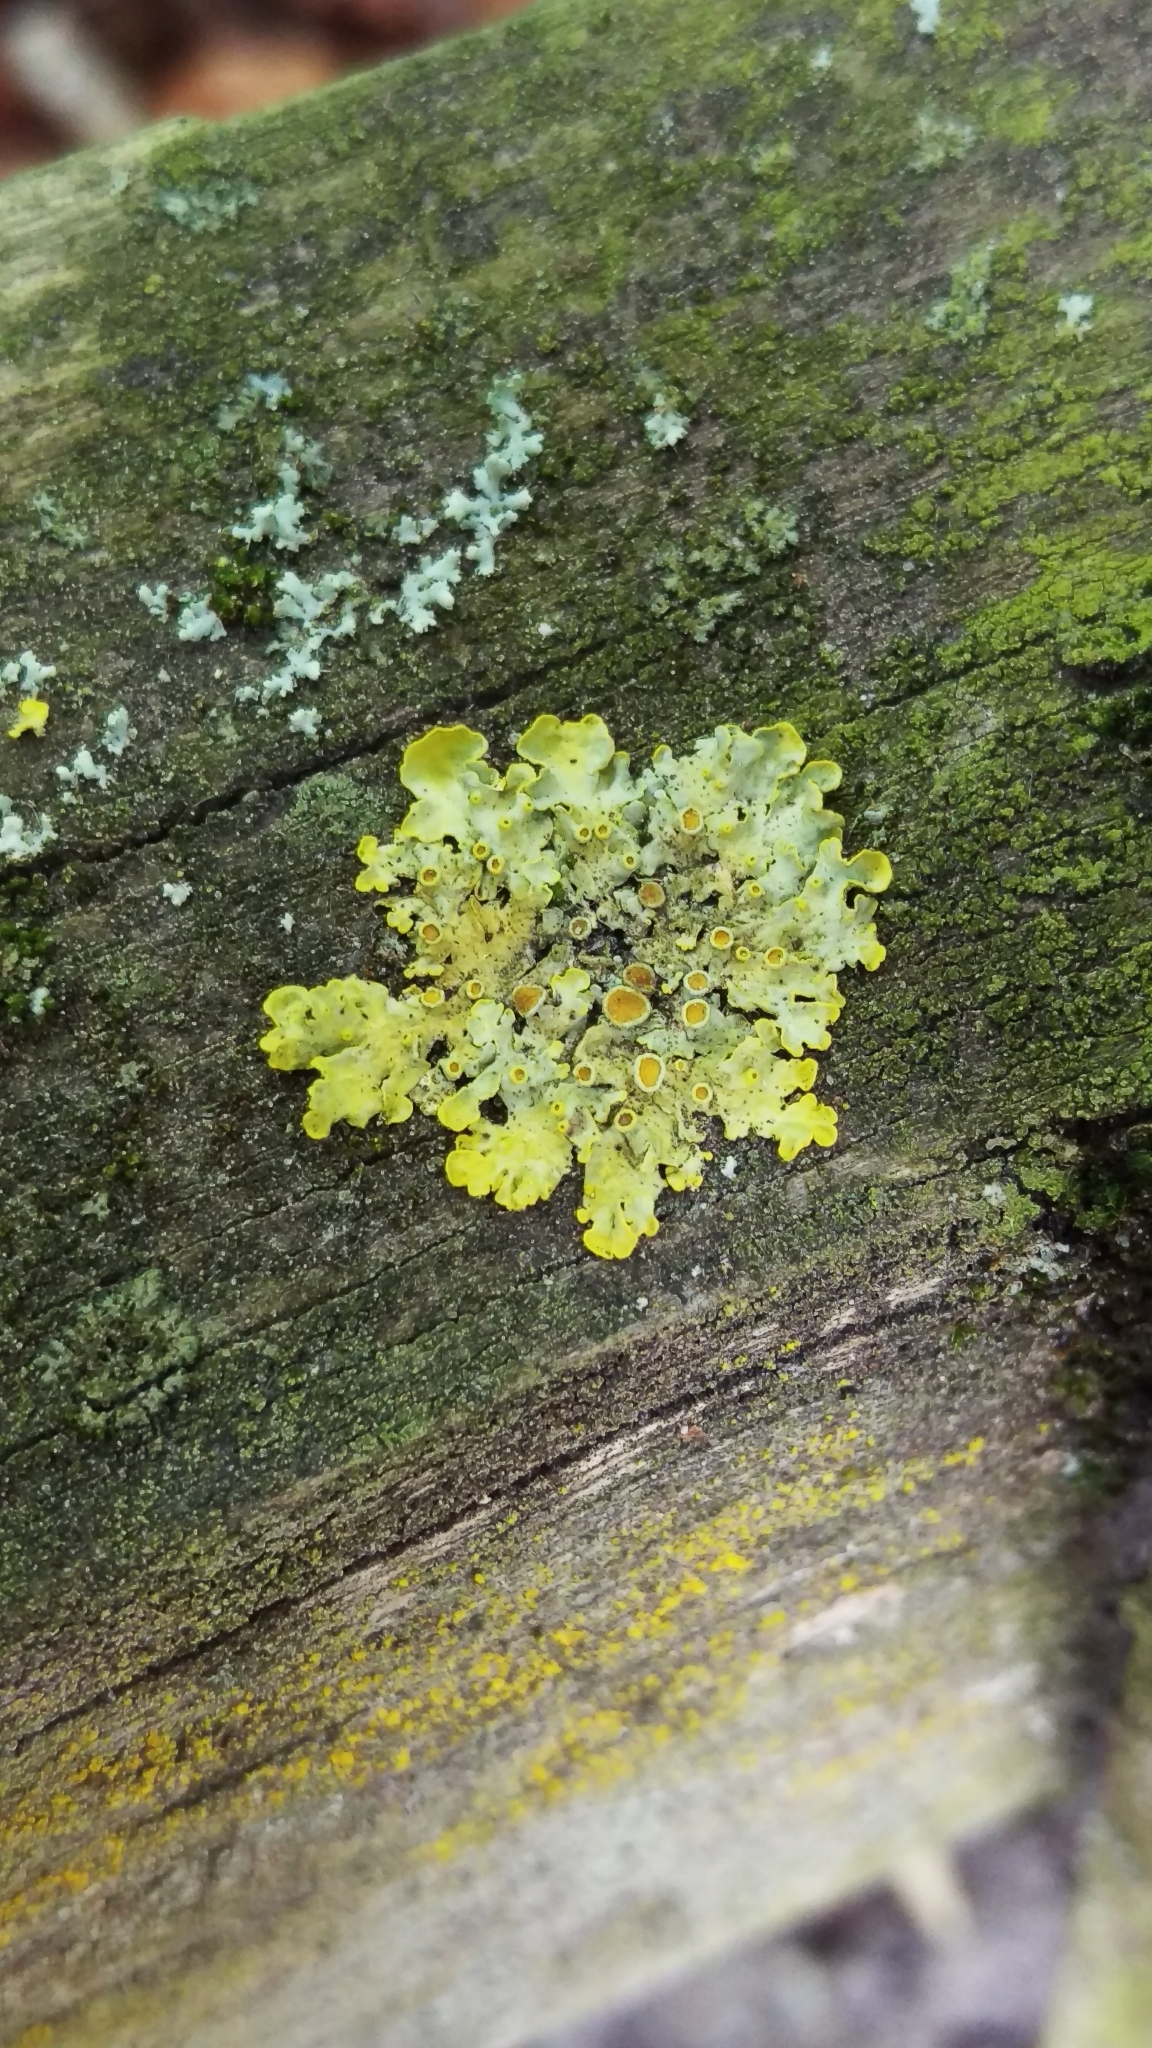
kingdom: Fungi
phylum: Ascomycota
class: Lecanoromycetes
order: Teloschistales
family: Teloschistaceae
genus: Xanthoria
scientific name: Xanthoria parietina
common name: Common orange lichen
